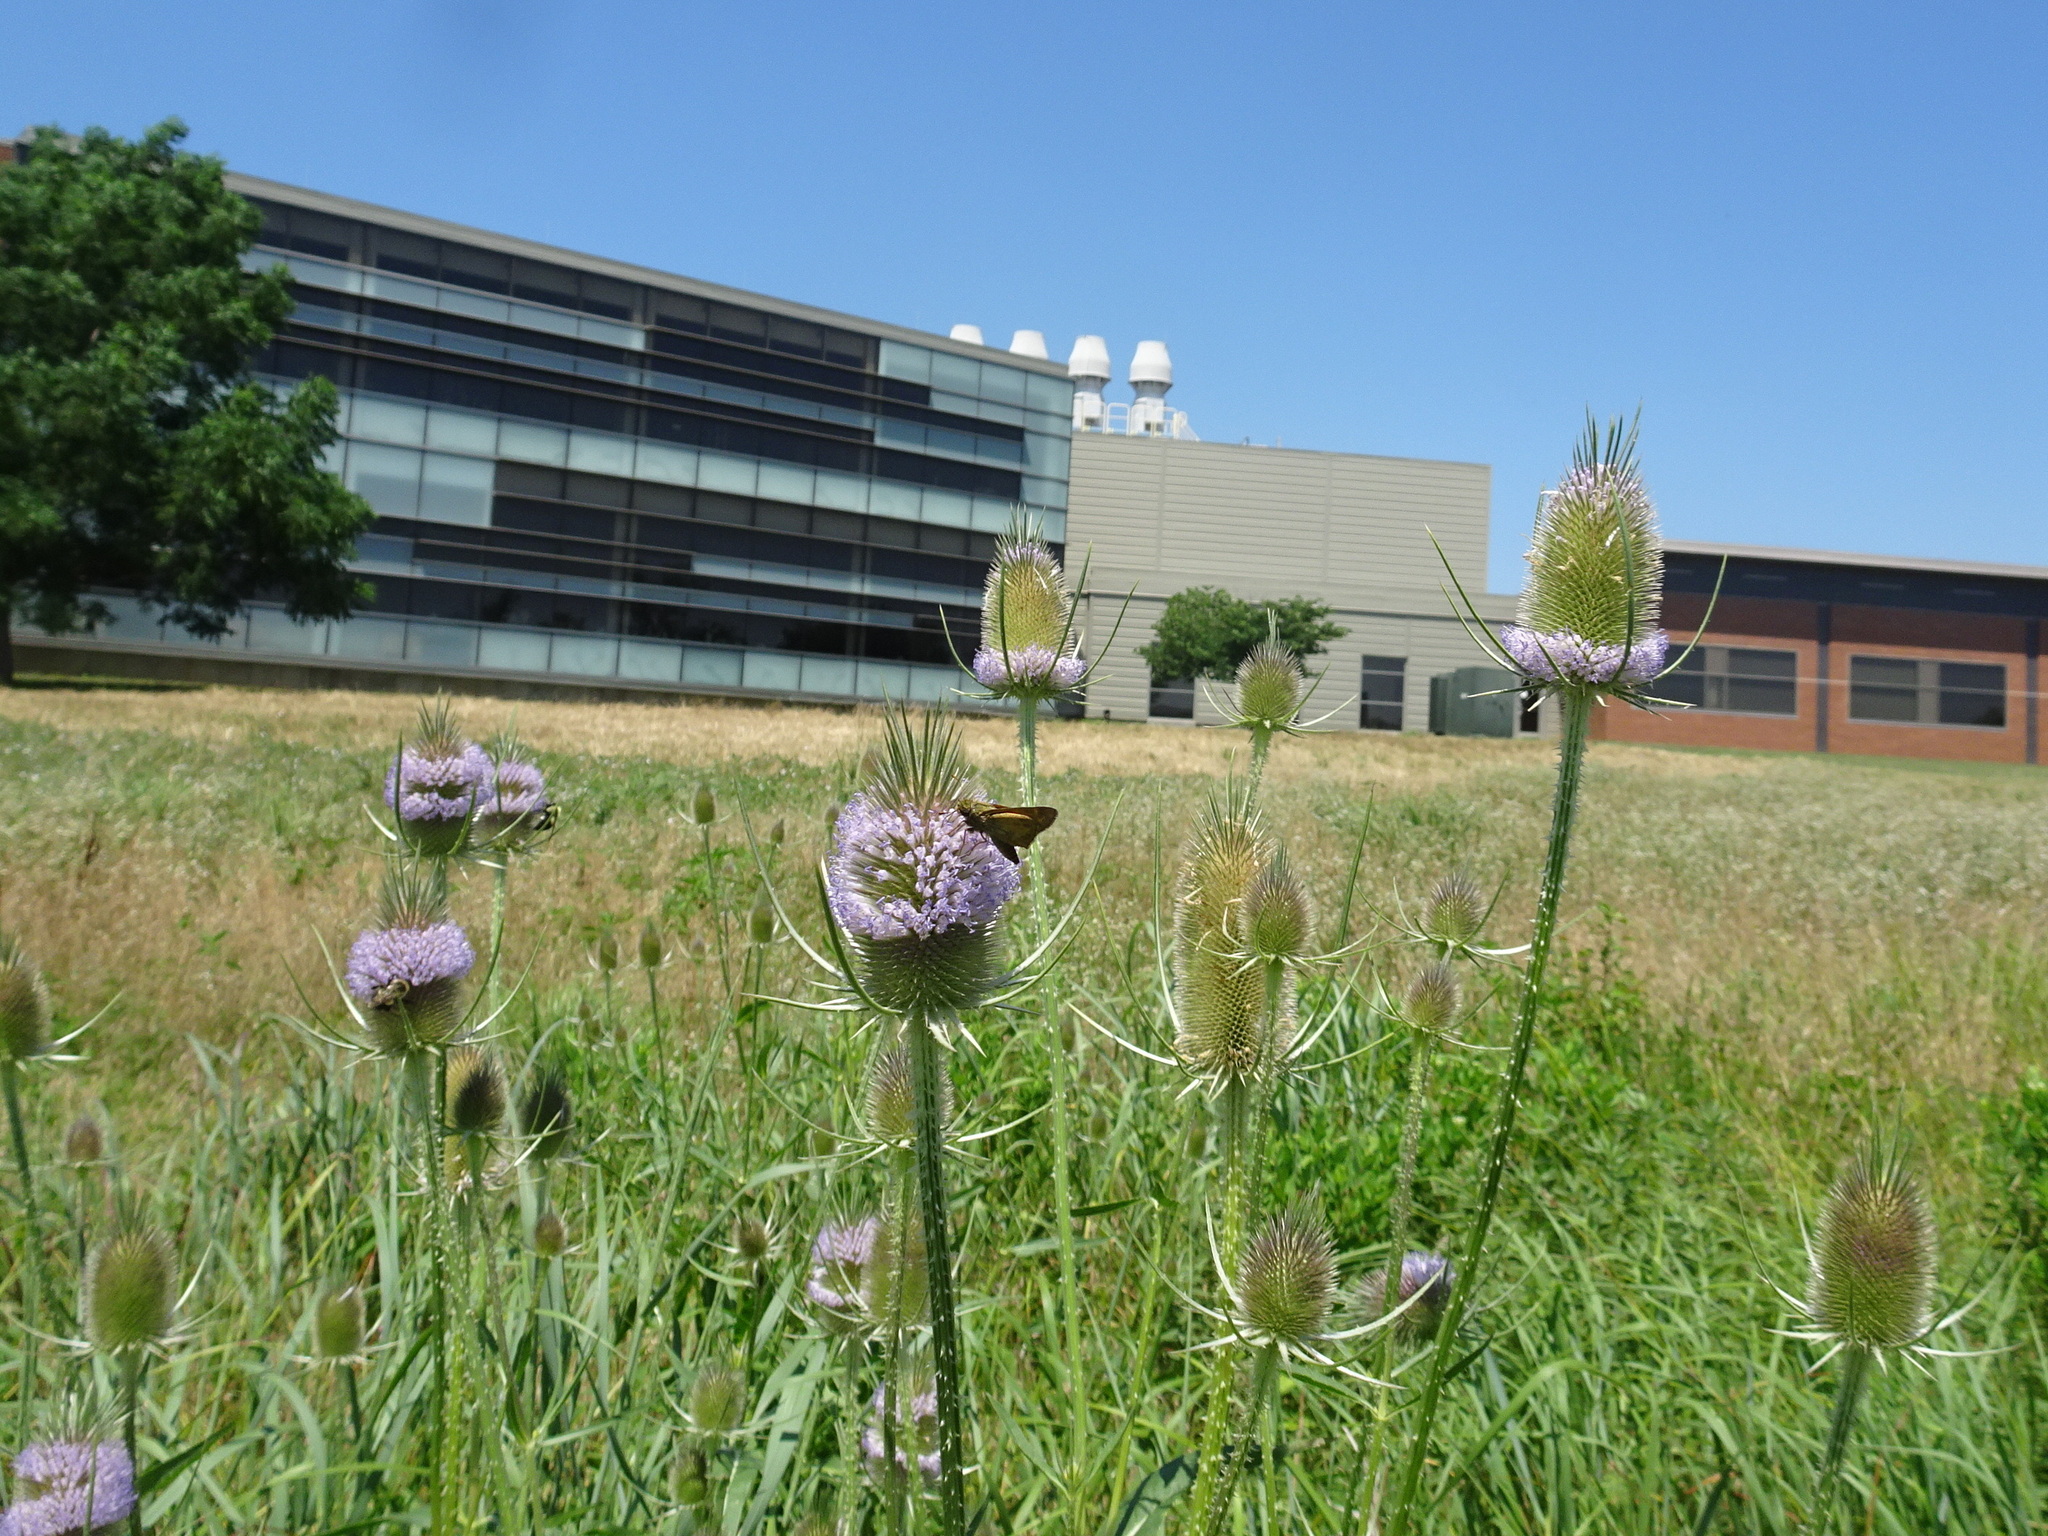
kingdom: Plantae
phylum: Tracheophyta
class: Magnoliopsida
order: Dipsacales
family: Caprifoliaceae
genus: Dipsacus
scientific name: Dipsacus fullonum
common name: Teasel
